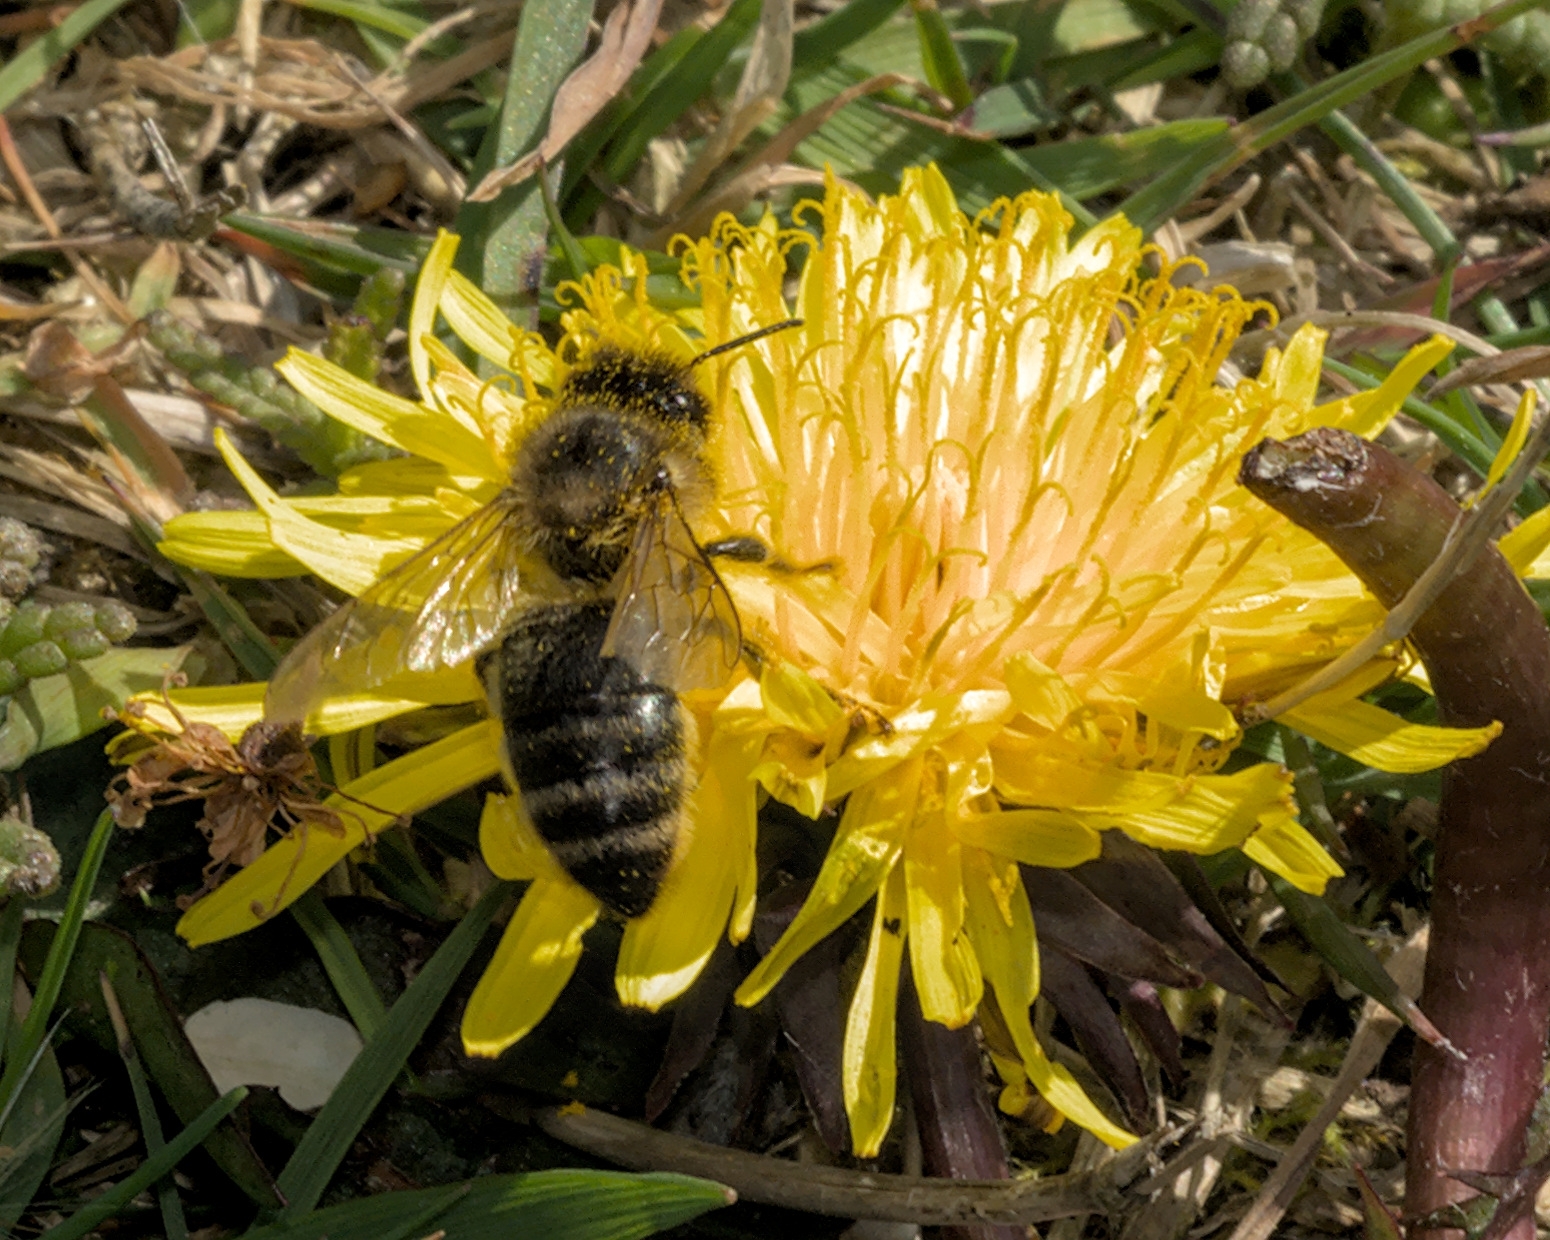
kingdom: Animalia
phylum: Arthropoda
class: Insecta
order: Hymenoptera
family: Apidae
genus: Apis
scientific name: Apis mellifera
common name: Honey bee
